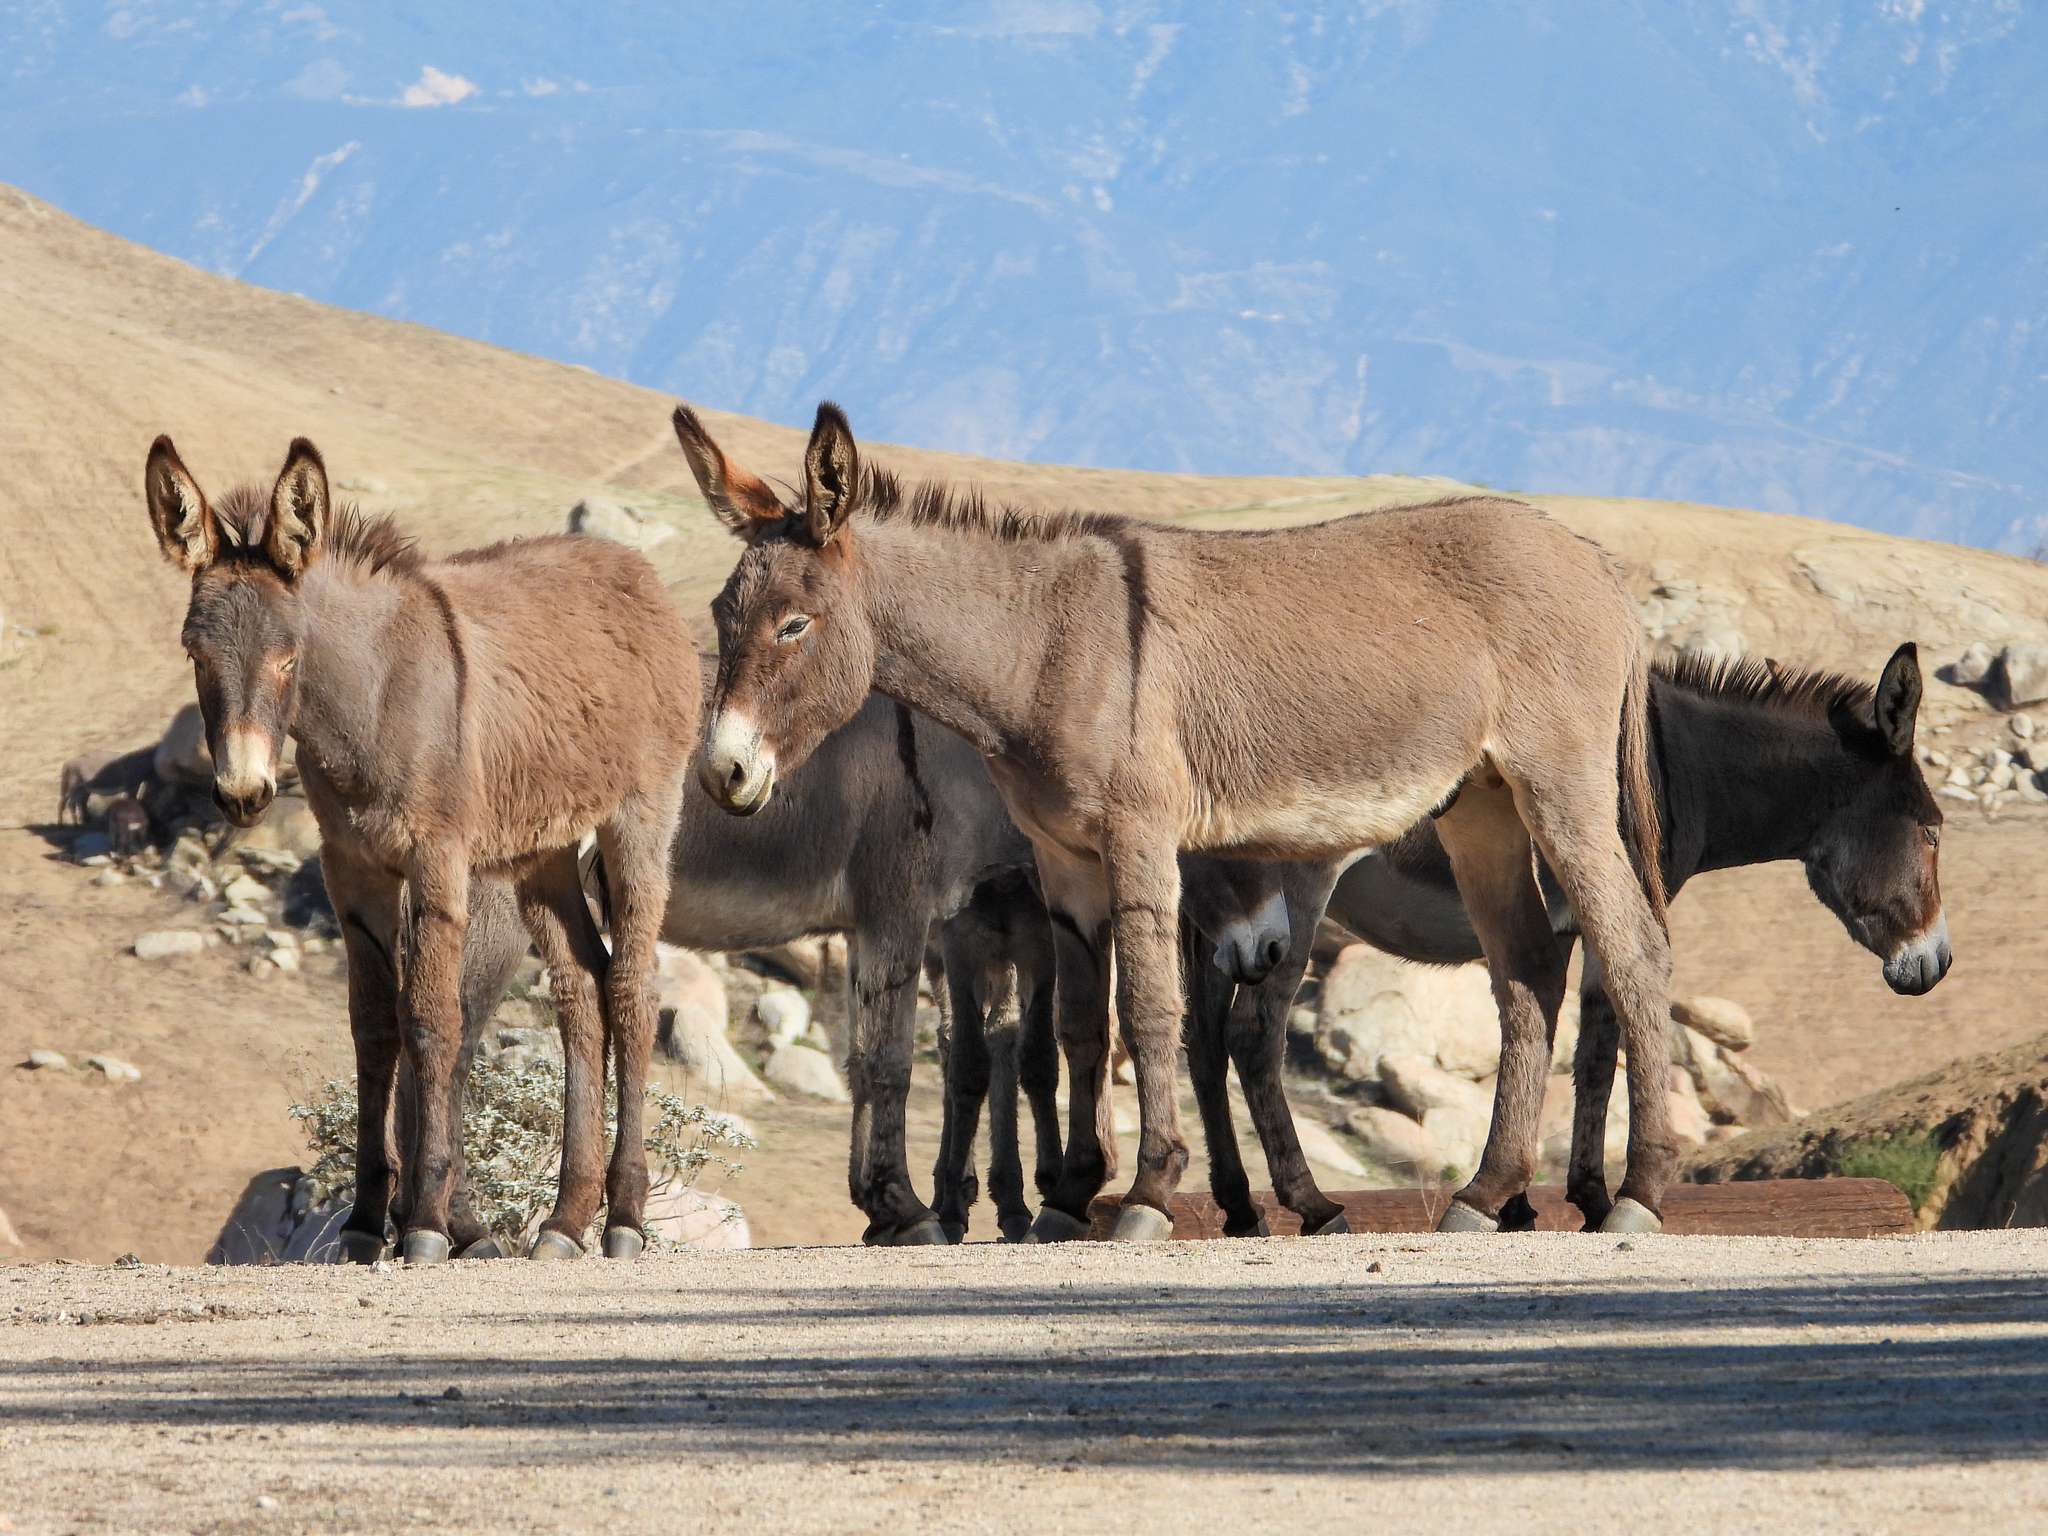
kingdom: Animalia
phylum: Chordata
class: Mammalia
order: Perissodactyla
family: Equidae
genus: Equus
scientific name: Equus asinus
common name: Ass
